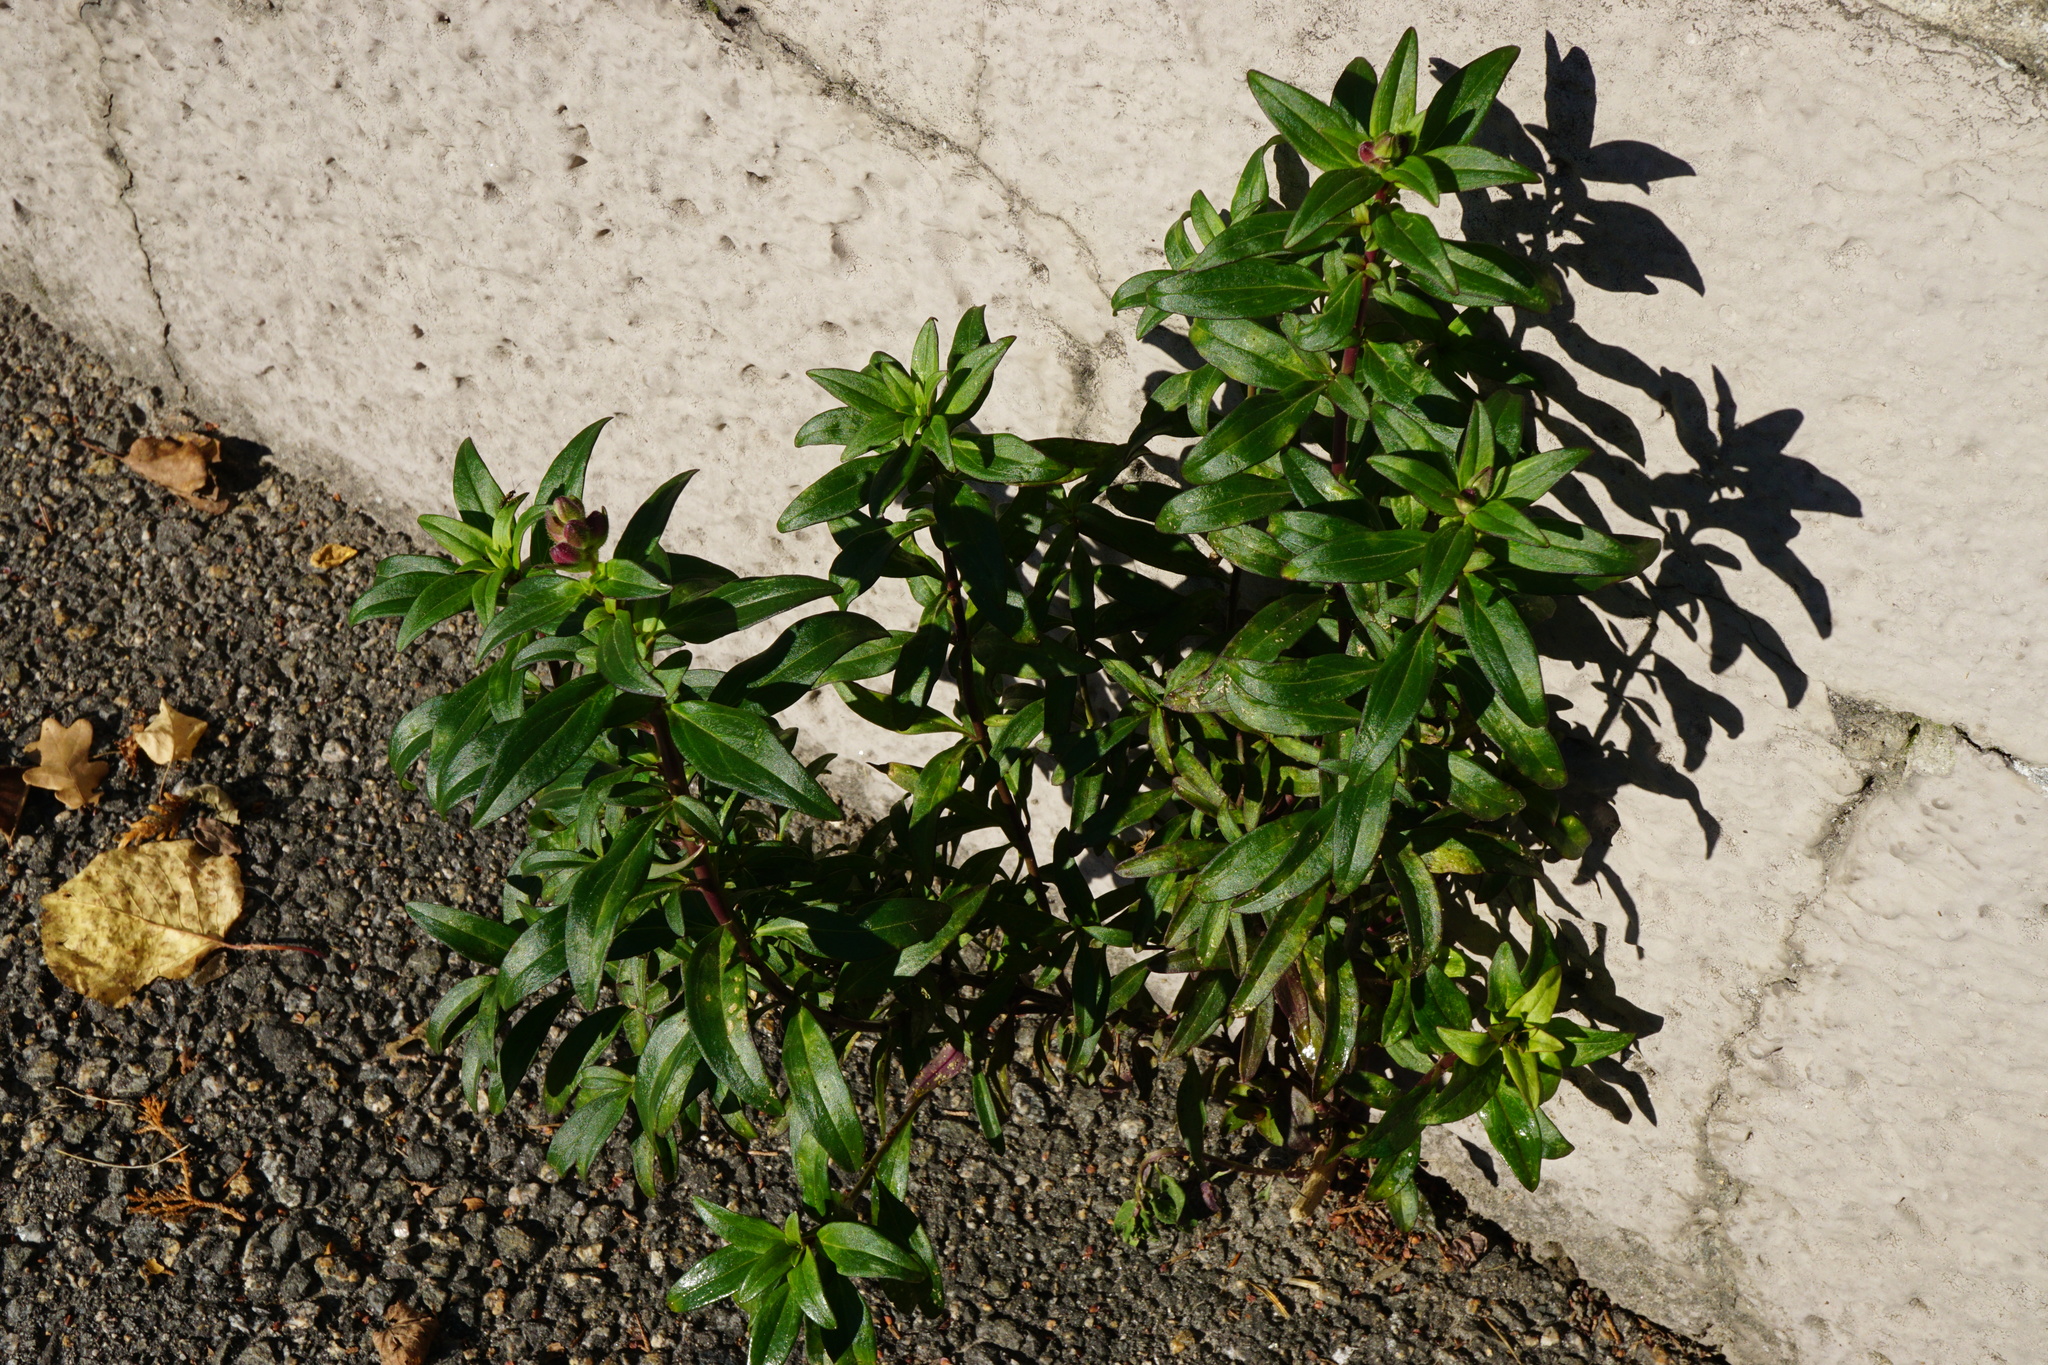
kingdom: Plantae
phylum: Tracheophyta
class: Magnoliopsida
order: Lamiales
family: Plantaginaceae
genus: Antirrhinum
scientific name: Antirrhinum majus
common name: Snapdragon
